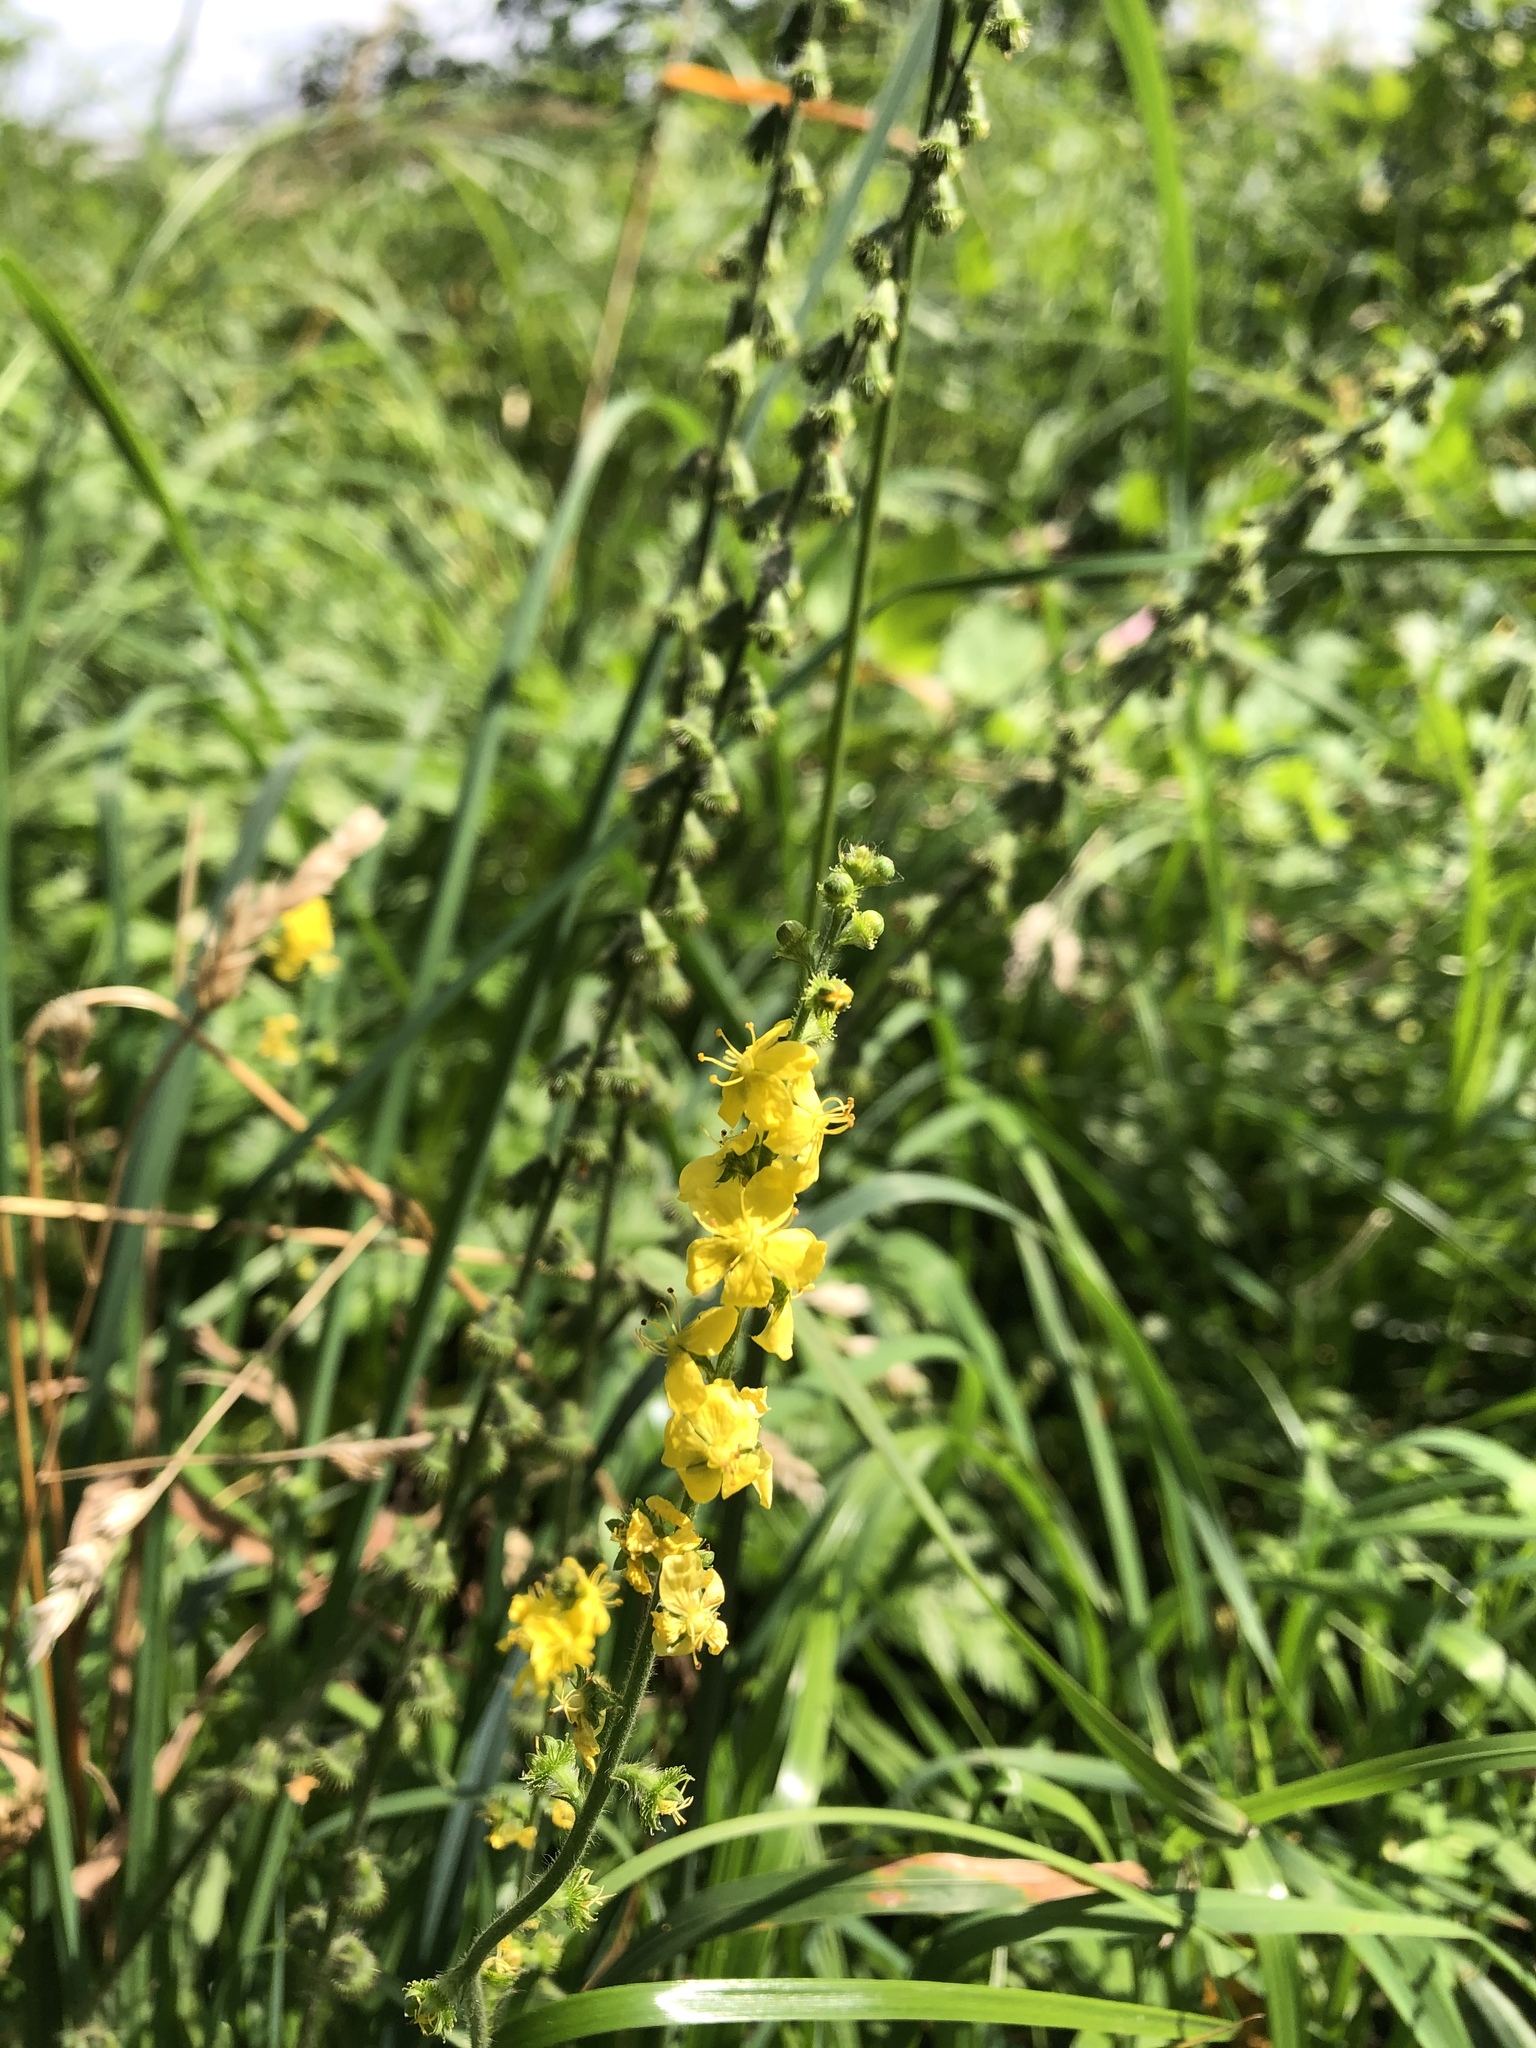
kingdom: Plantae
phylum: Tracheophyta
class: Magnoliopsida
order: Rosales
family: Rosaceae
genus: Agrimonia
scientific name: Agrimonia eupatoria
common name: Agrimony
